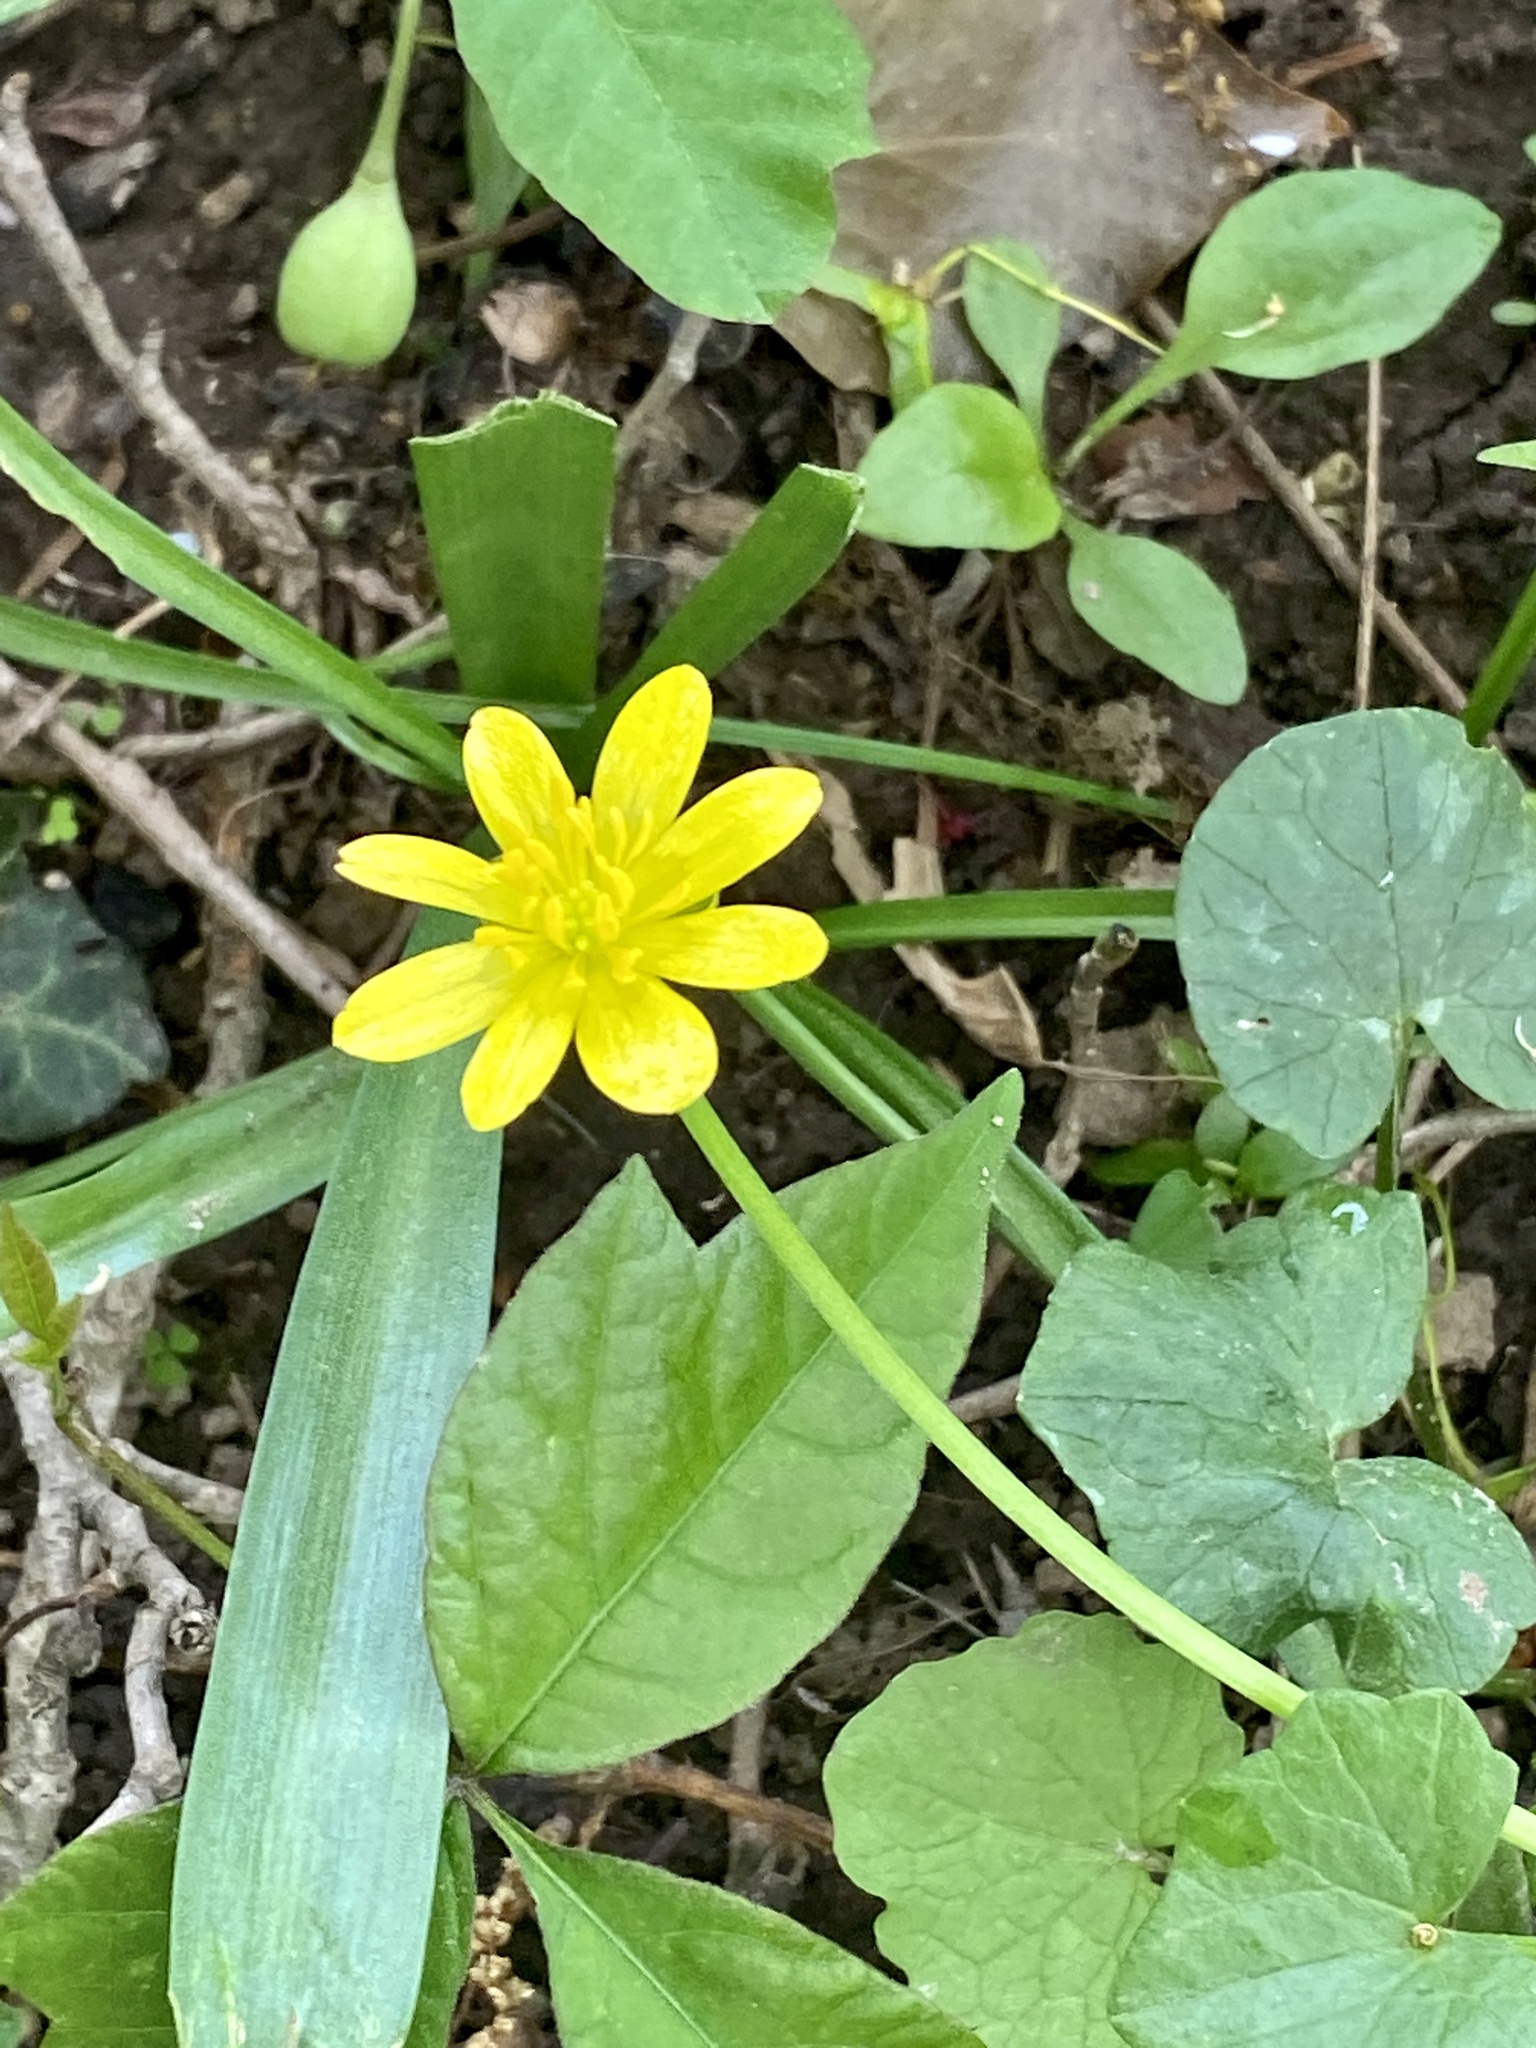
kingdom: Plantae
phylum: Tracheophyta
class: Magnoliopsida
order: Ranunculales
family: Ranunculaceae
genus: Ficaria
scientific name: Ficaria verna
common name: Lesser celandine
